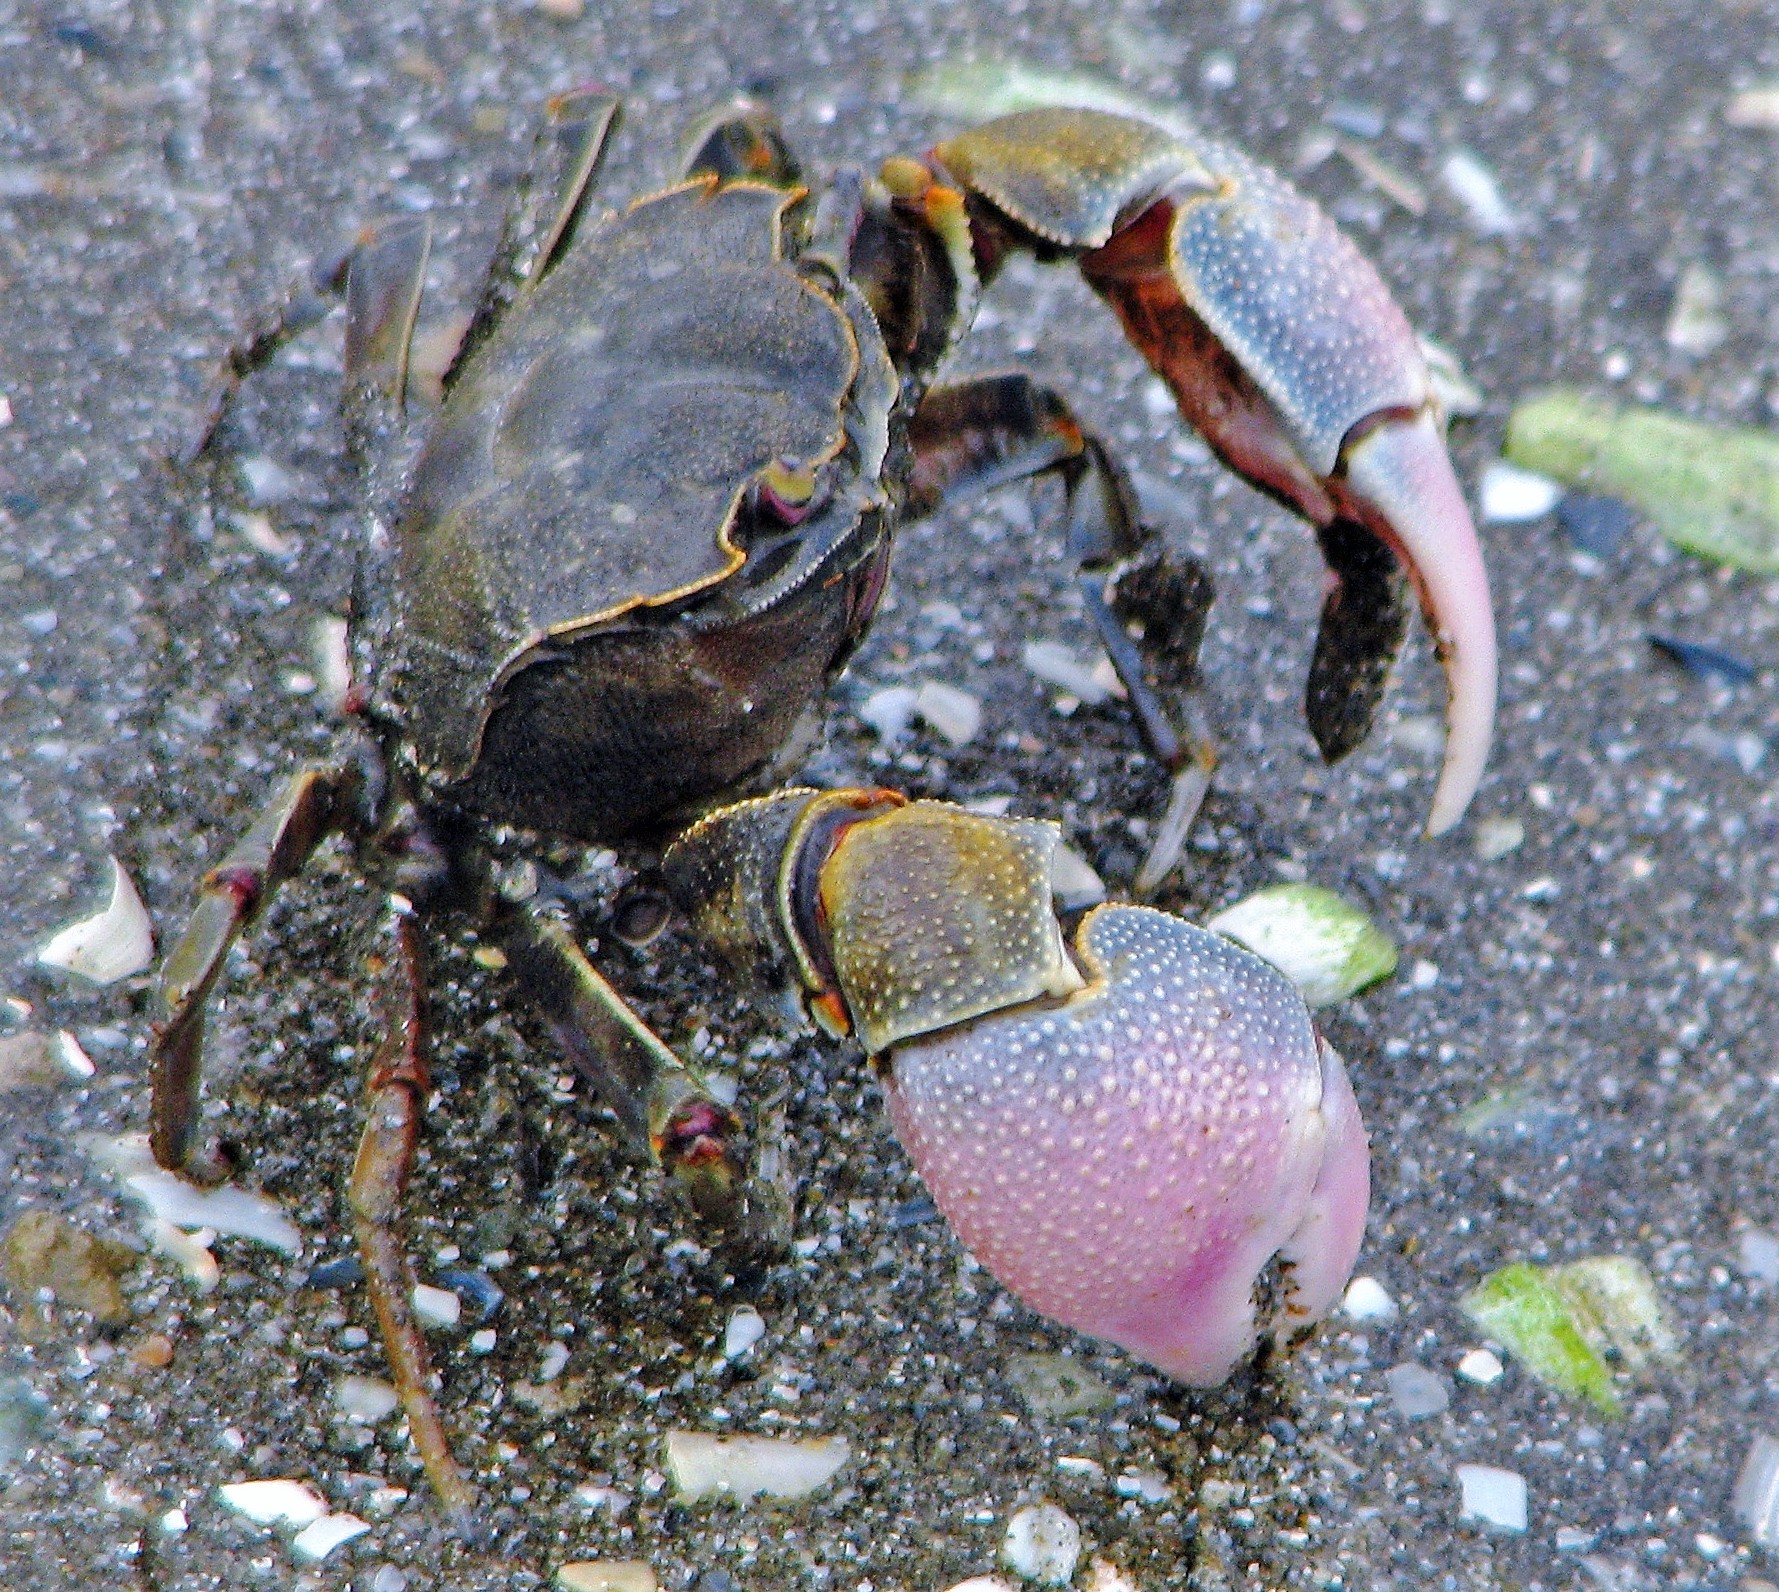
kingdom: Animalia
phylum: Arthropoda
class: Malacostraca
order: Decapoda
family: Varunidae
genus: Neohelice
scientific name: Neohelice granulata
